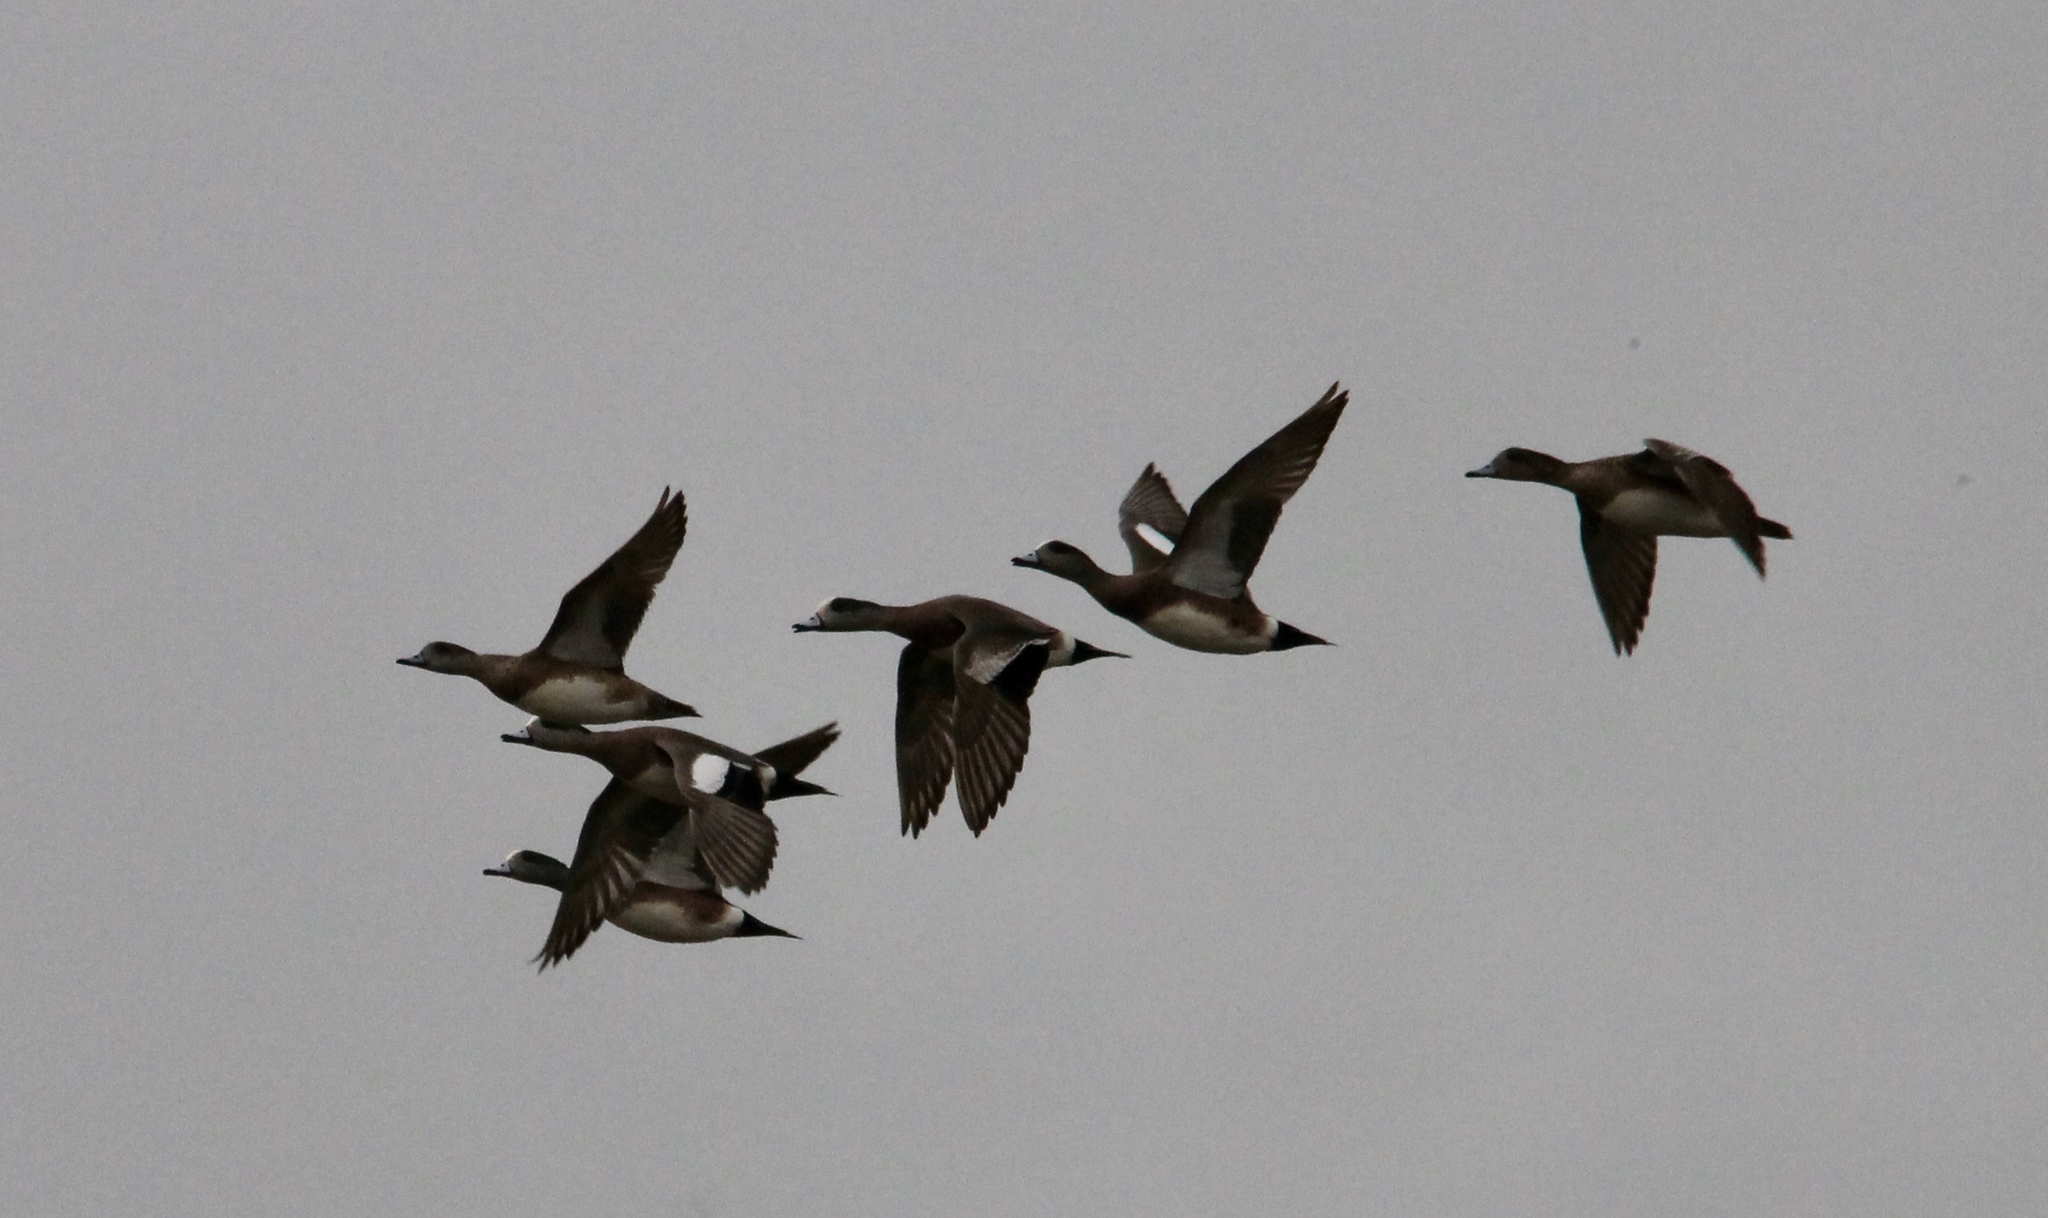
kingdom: Animalia
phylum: Chordata
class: Aves
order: Anseriformes
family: Anatidae
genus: Mareca
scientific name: Mareca americana
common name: American wigeon
